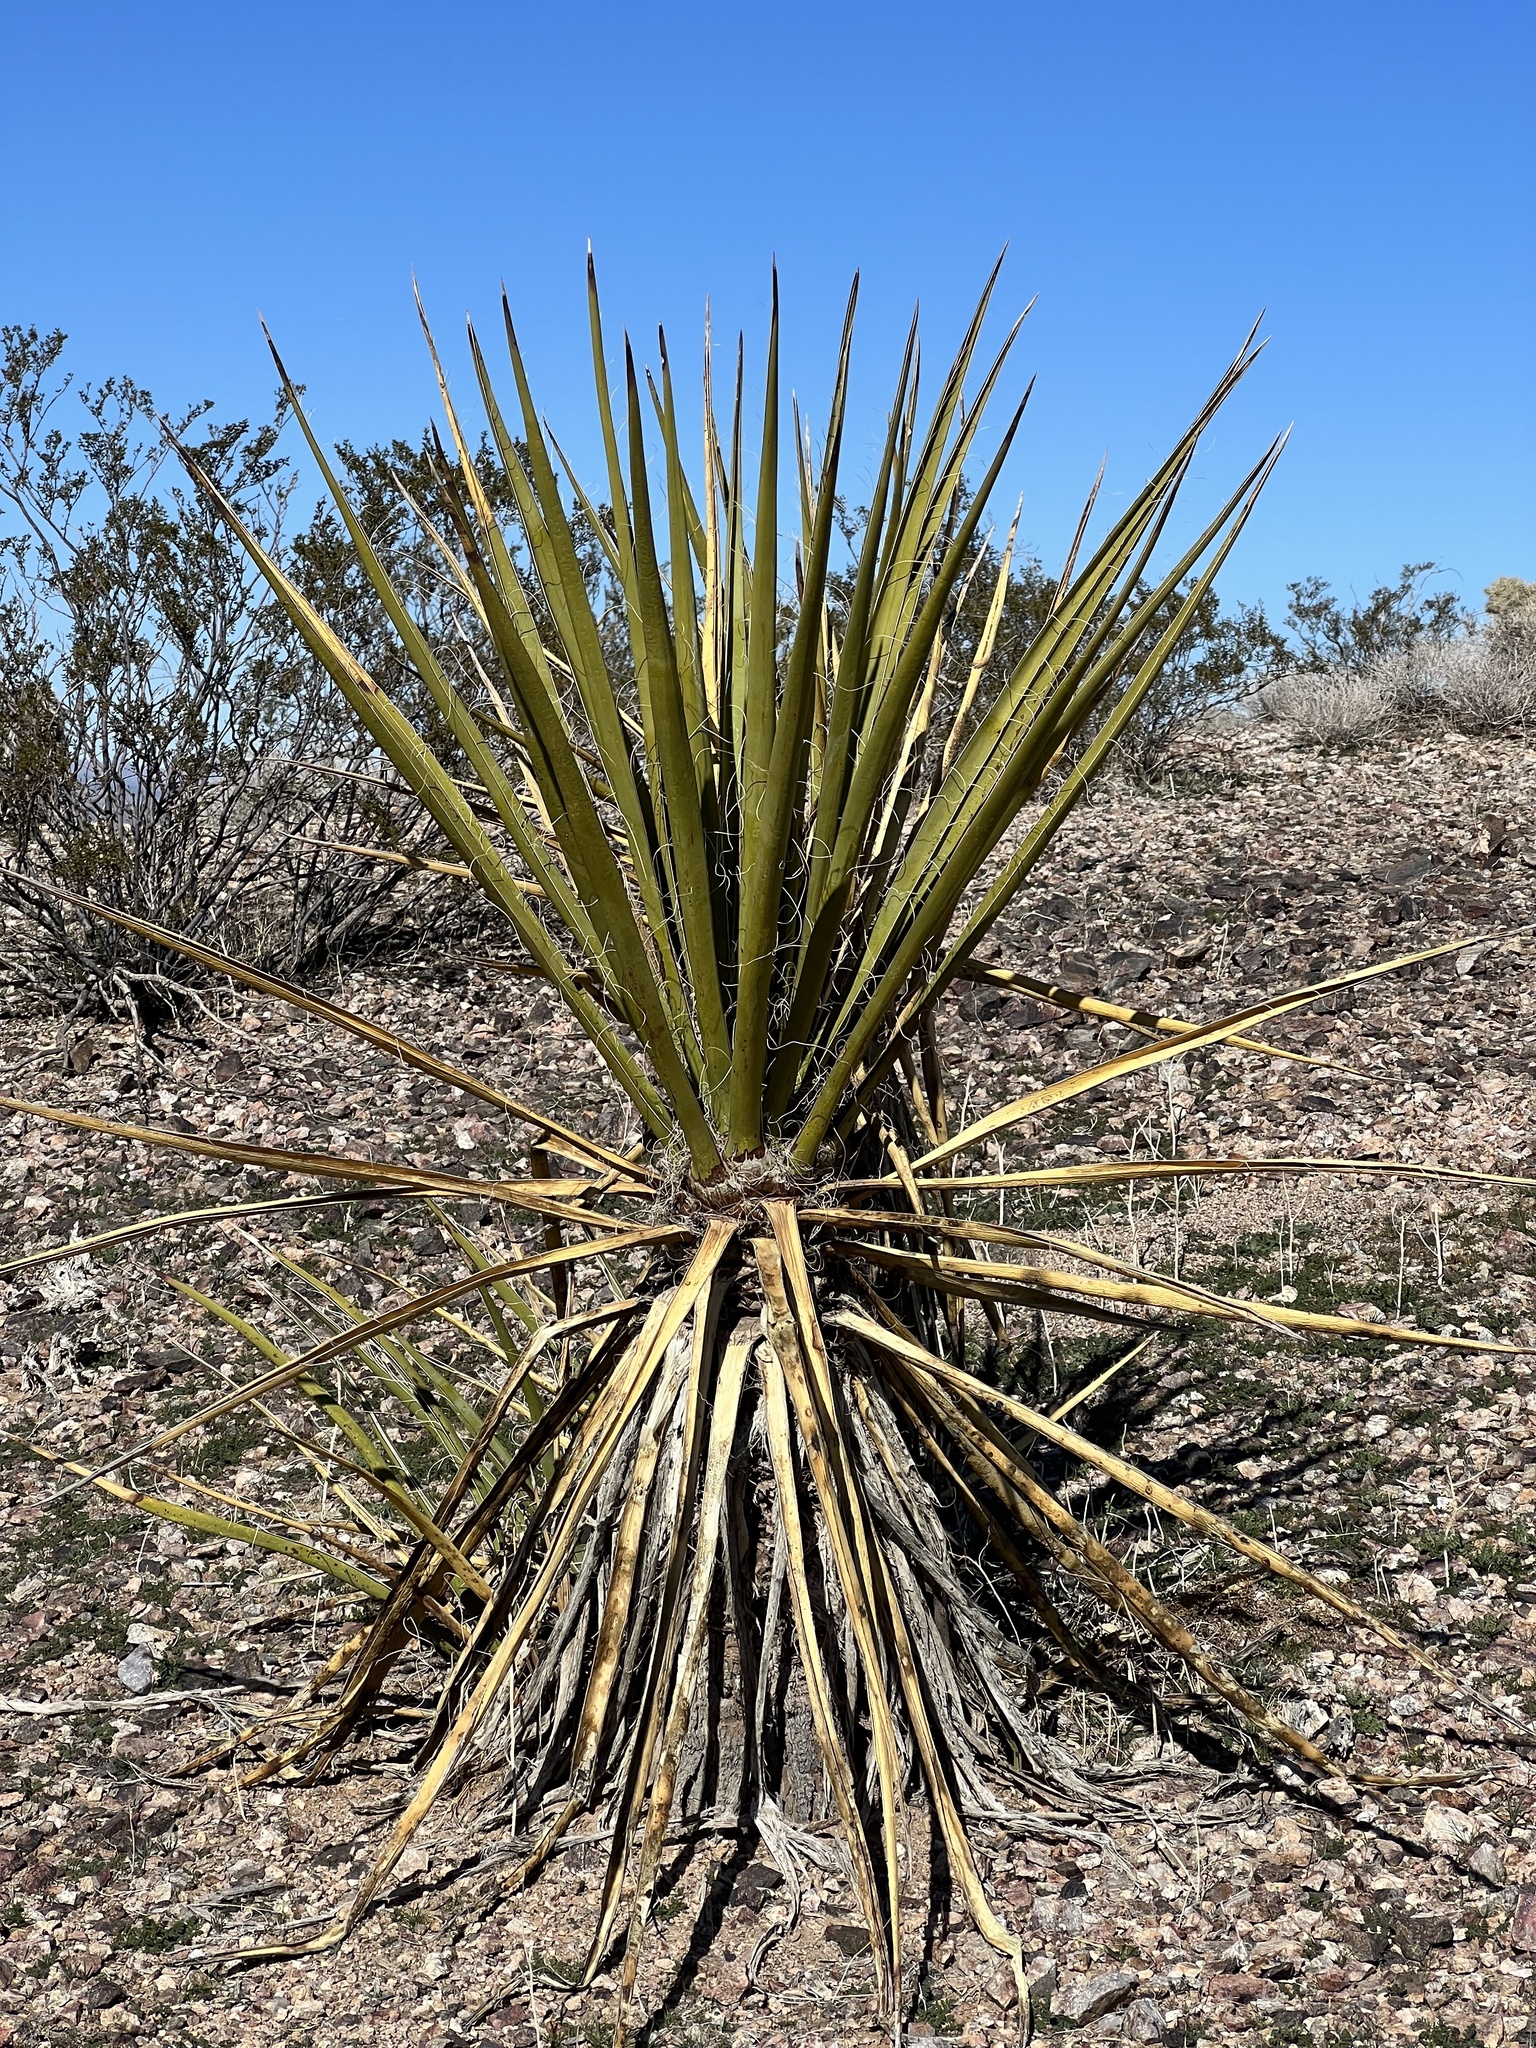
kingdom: Plantae
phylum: Tracheophyta
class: Liliopsida
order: Asparagales
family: Asparagaceae
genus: Yucca
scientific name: Yucca schidigera
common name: Mojave yucca
